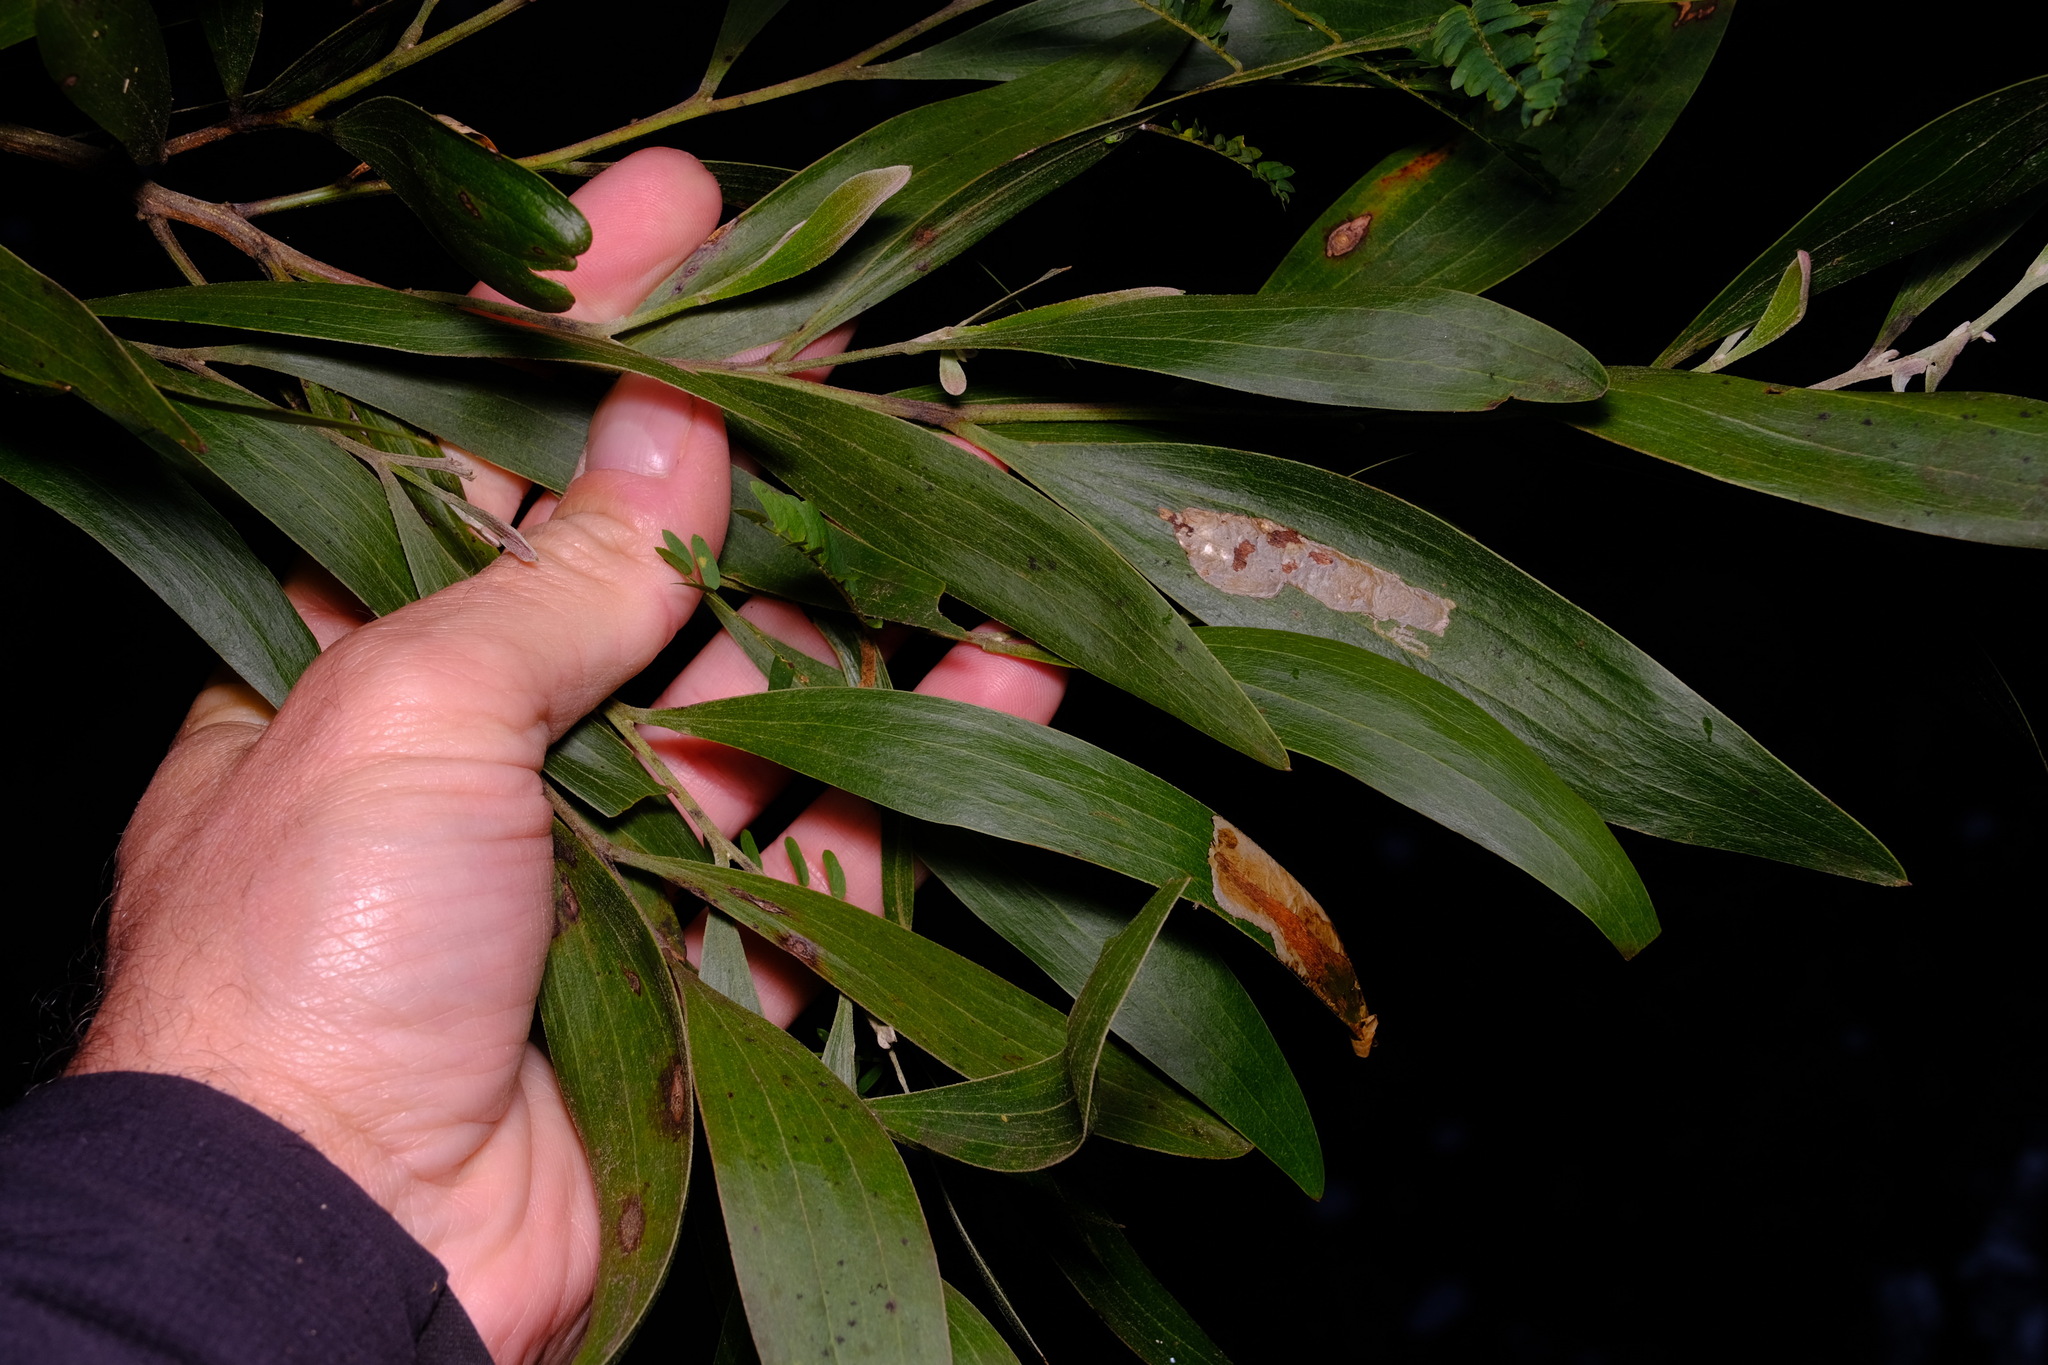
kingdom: Plantae
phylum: Tracheophyta
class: Magnoliopsida
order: Fabales
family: Fabaceae
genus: Acacia
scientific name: Acacia melanoxylon
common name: Blackwood
